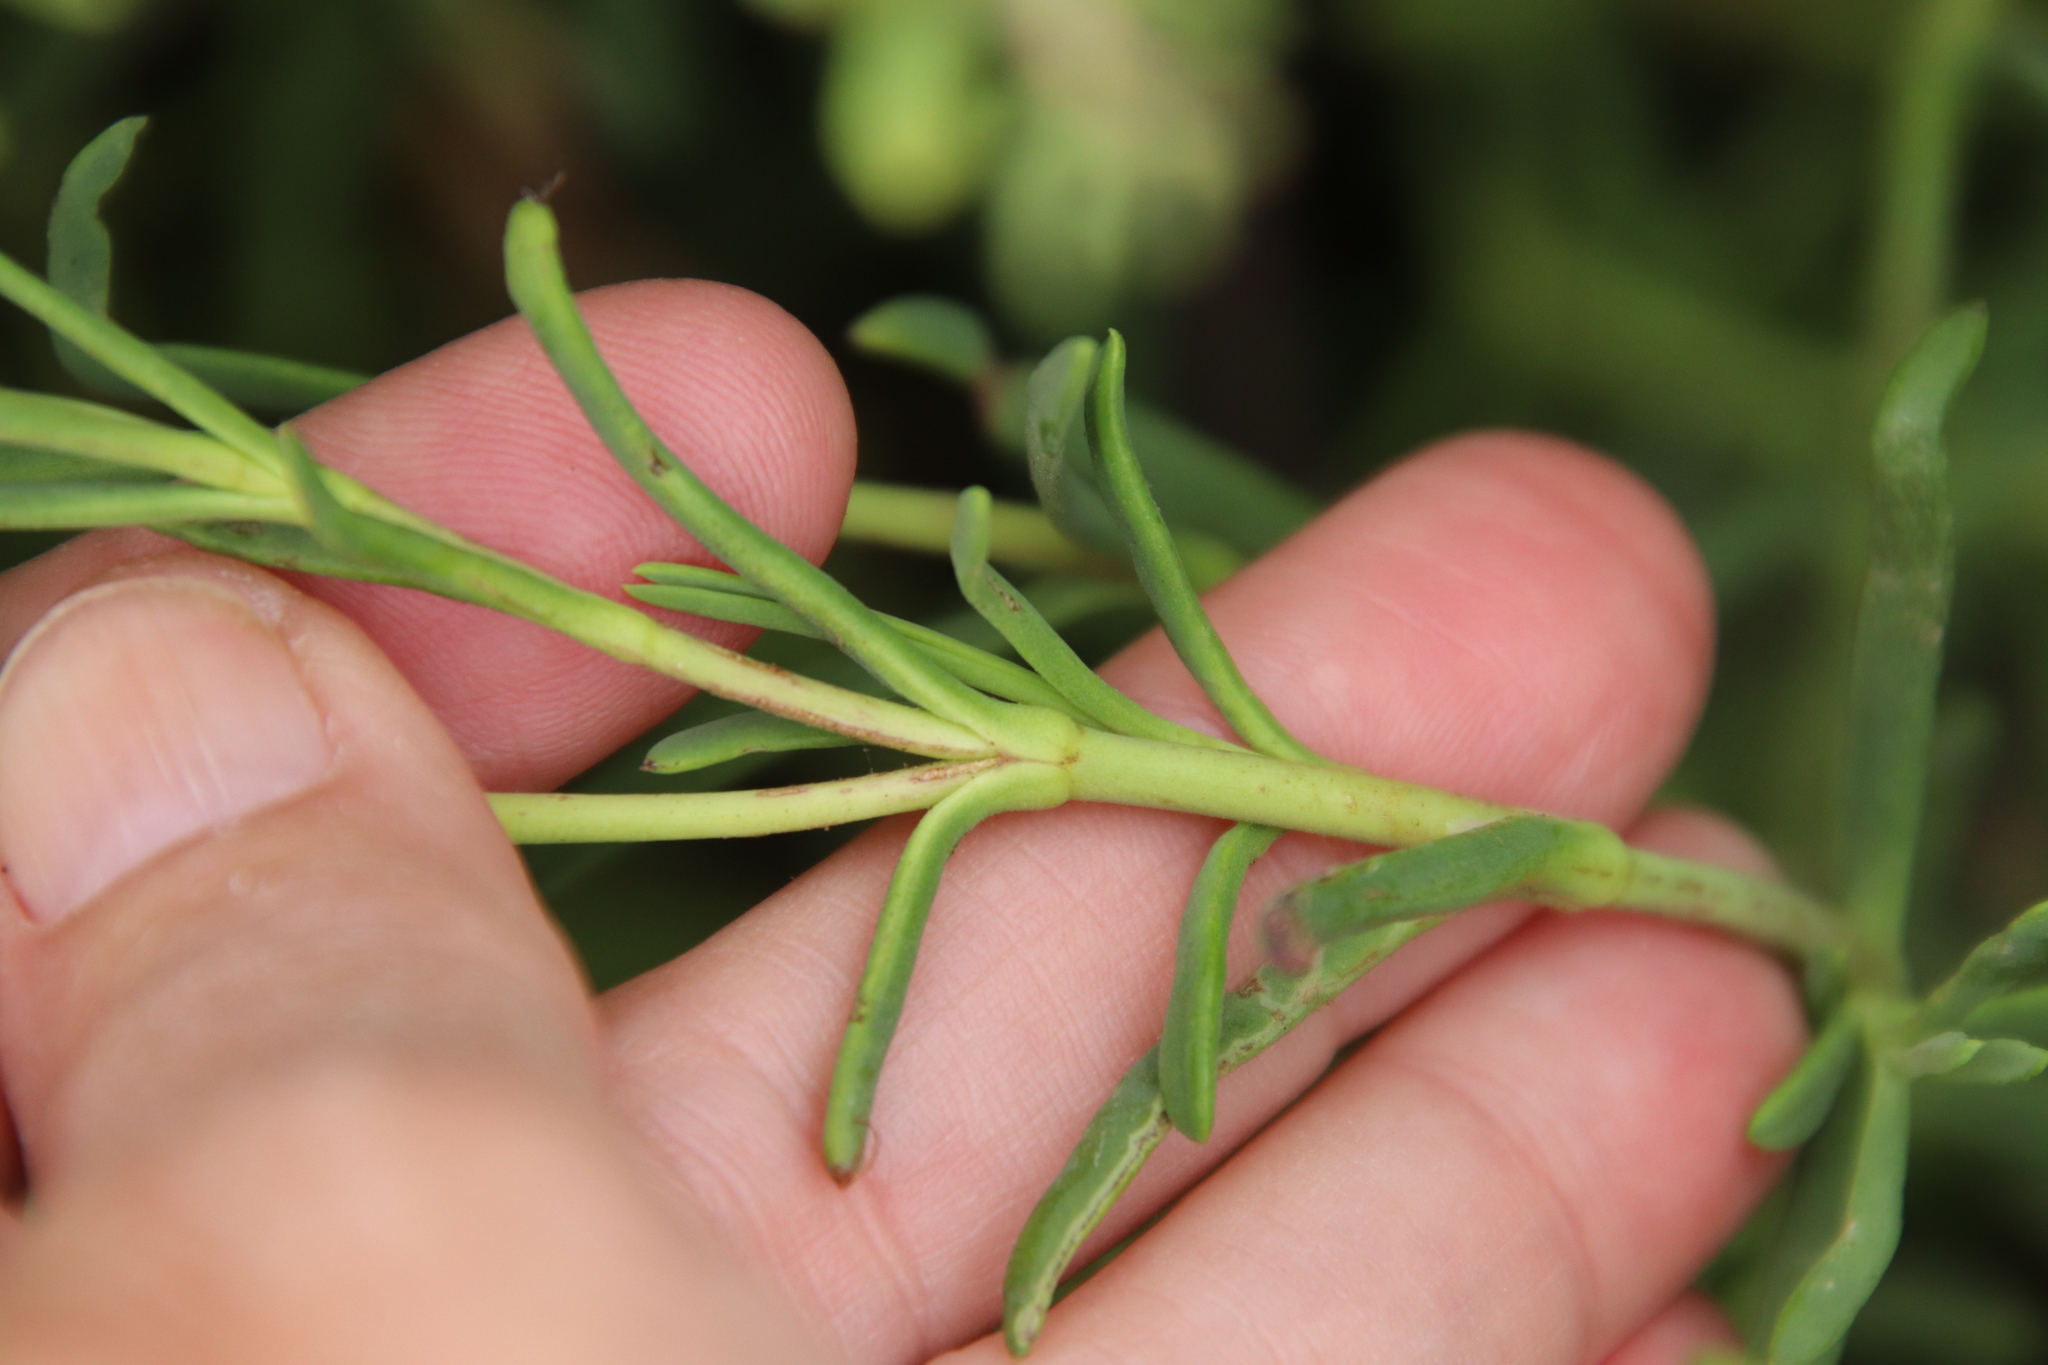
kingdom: Plantae
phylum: Tracheophyta
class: Magnoliopsida
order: Asterales
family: Asteraceae
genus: Jaumea
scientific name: Jaumea carnosa
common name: Fleshy jaumea
